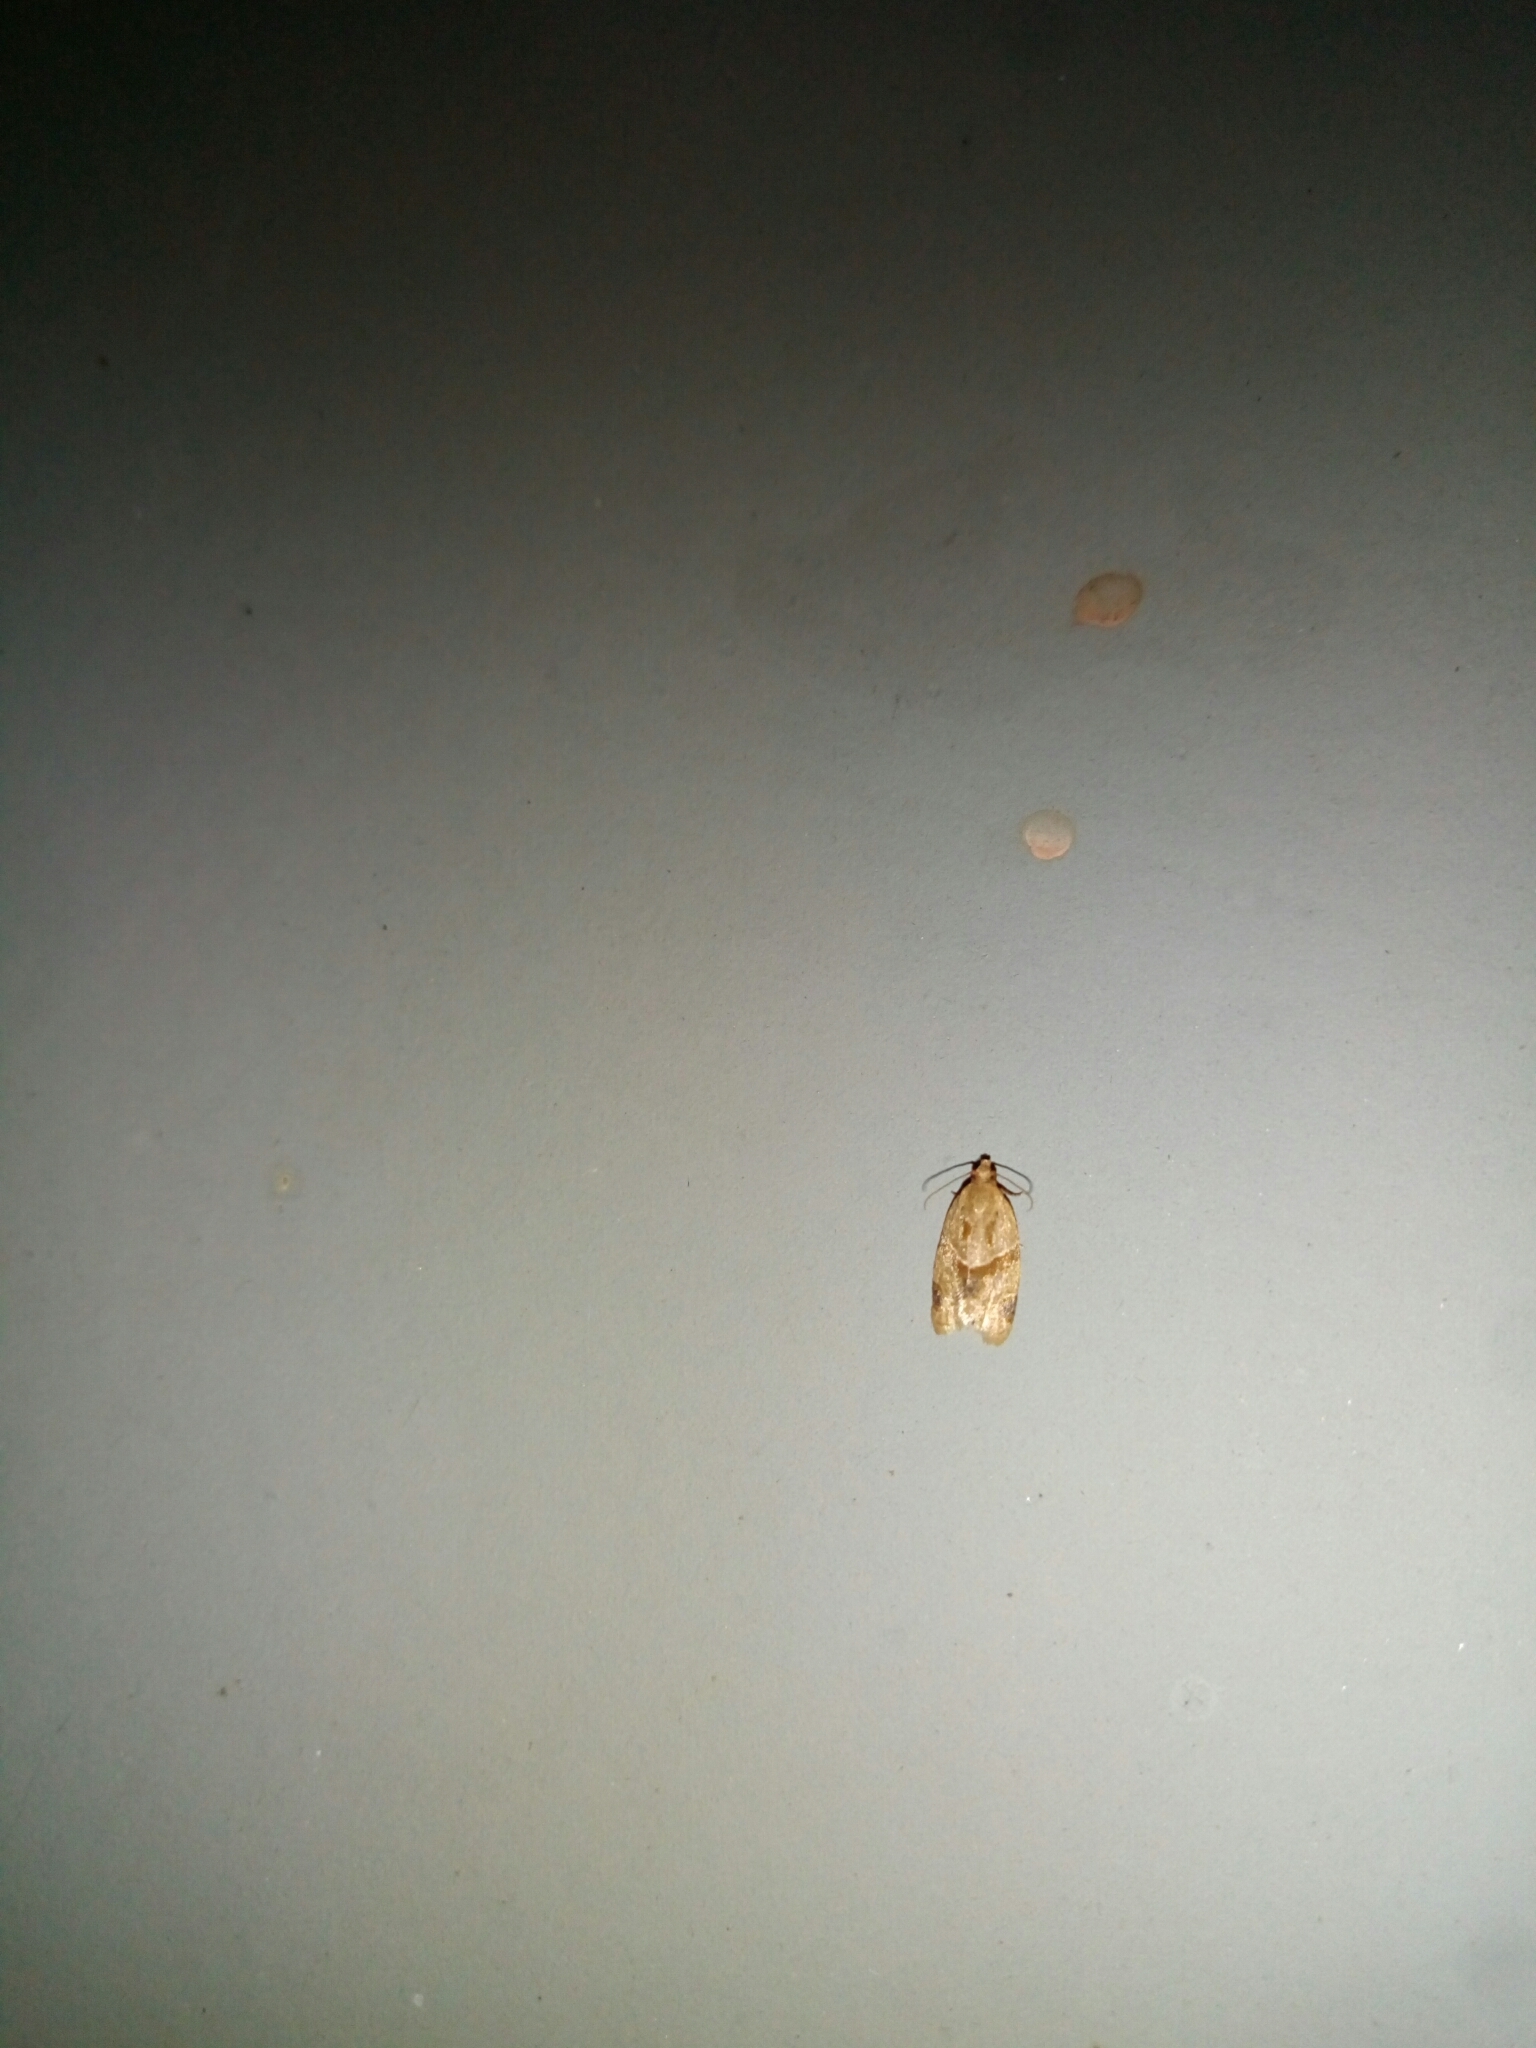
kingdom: Animalia
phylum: Arthropoda
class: Insecta
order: Lepidoptera
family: Tortricidae
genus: Clepsis
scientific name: Clepsis peritana
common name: Garden tortrix
